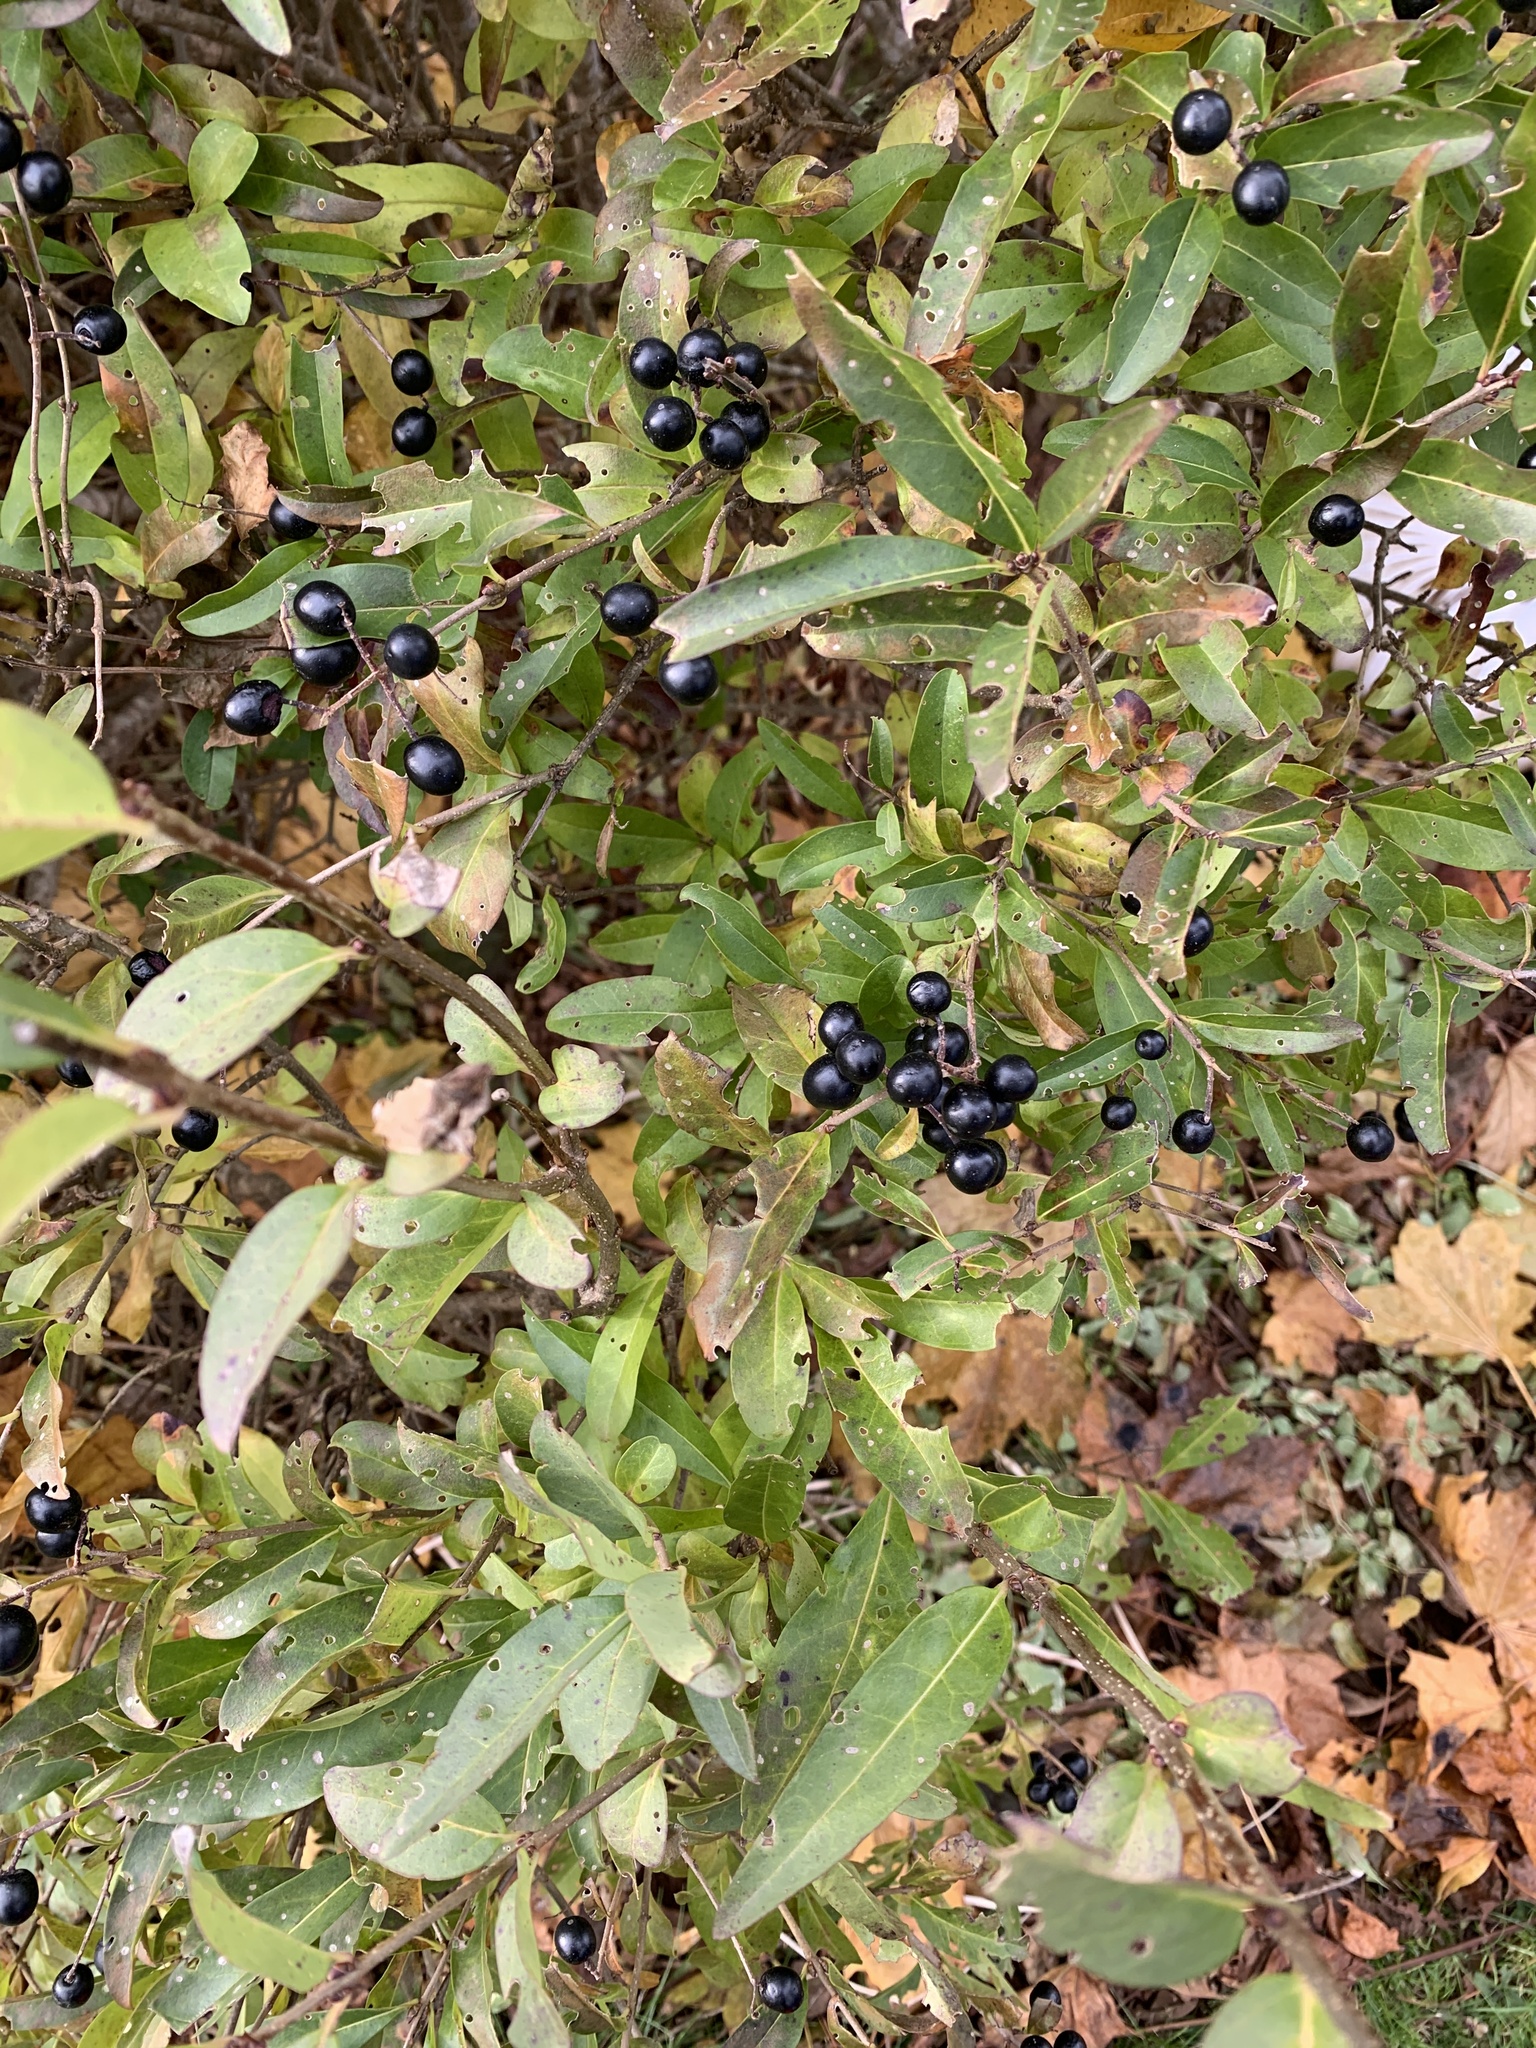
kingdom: Plantae
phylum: Tracheophyta
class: Magnoliopsida
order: Lamiales
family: Oleaceae
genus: Ligustrum
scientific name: Ligustrum vulgare
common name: Wild privet
